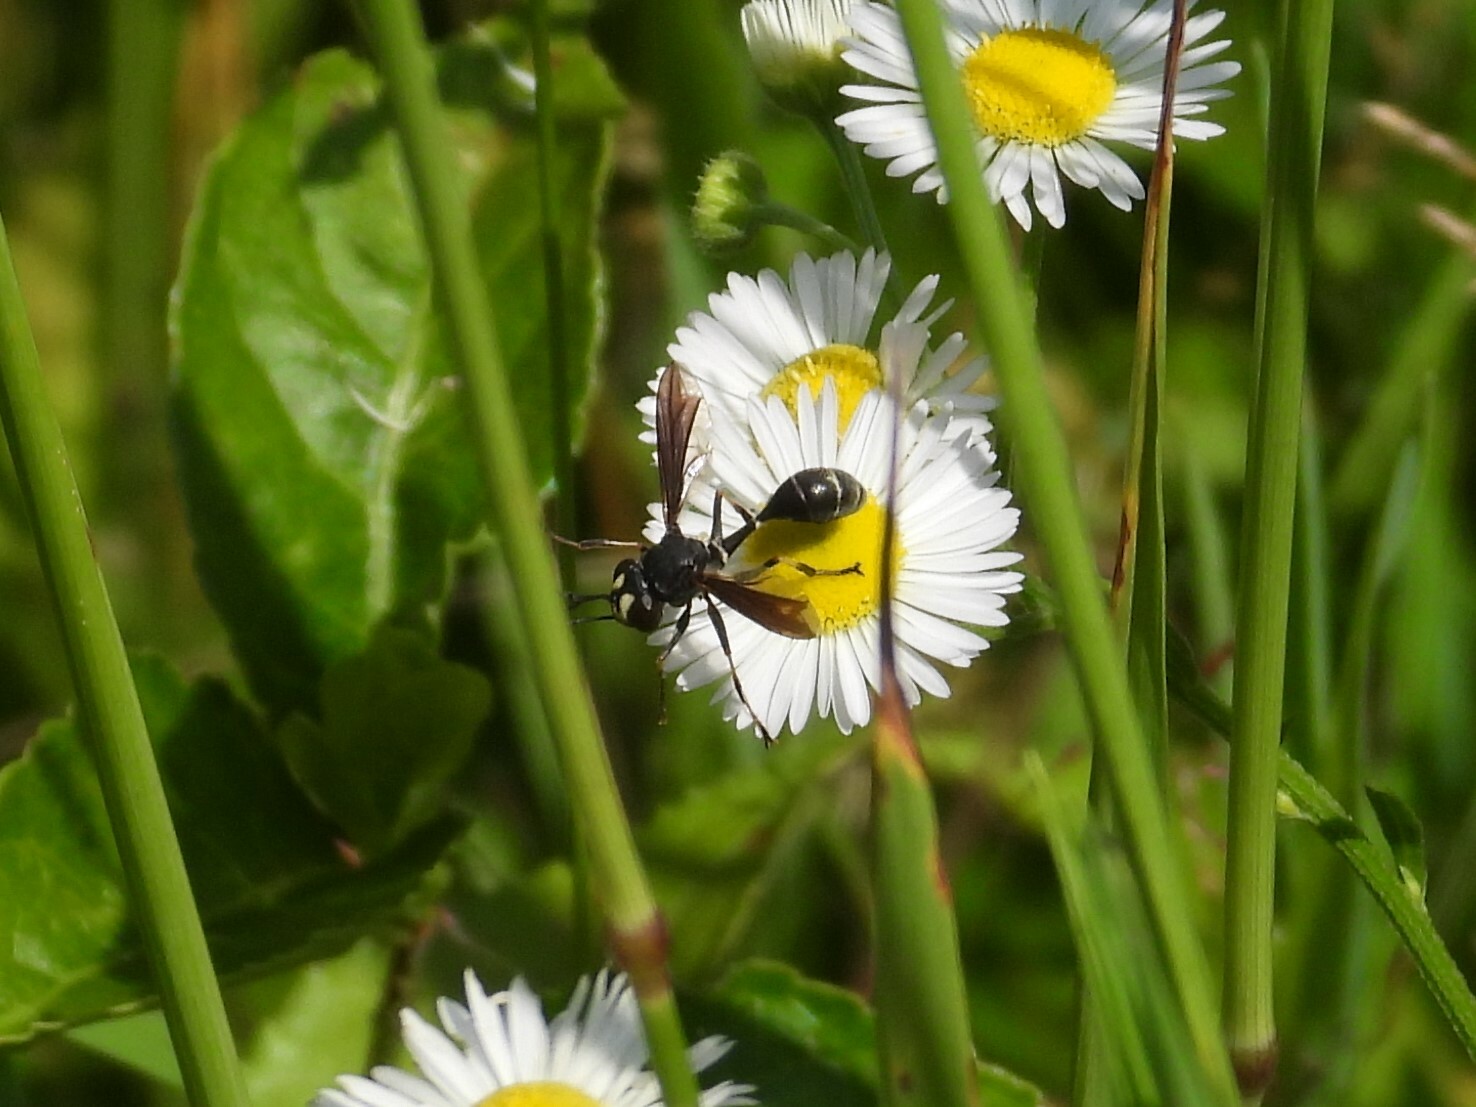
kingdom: Animalia
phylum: Arthropoda
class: Insecta
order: Diptera
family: Conopidae
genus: Physocephala
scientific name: Physocephala tibialis
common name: Common eastern physocephala
